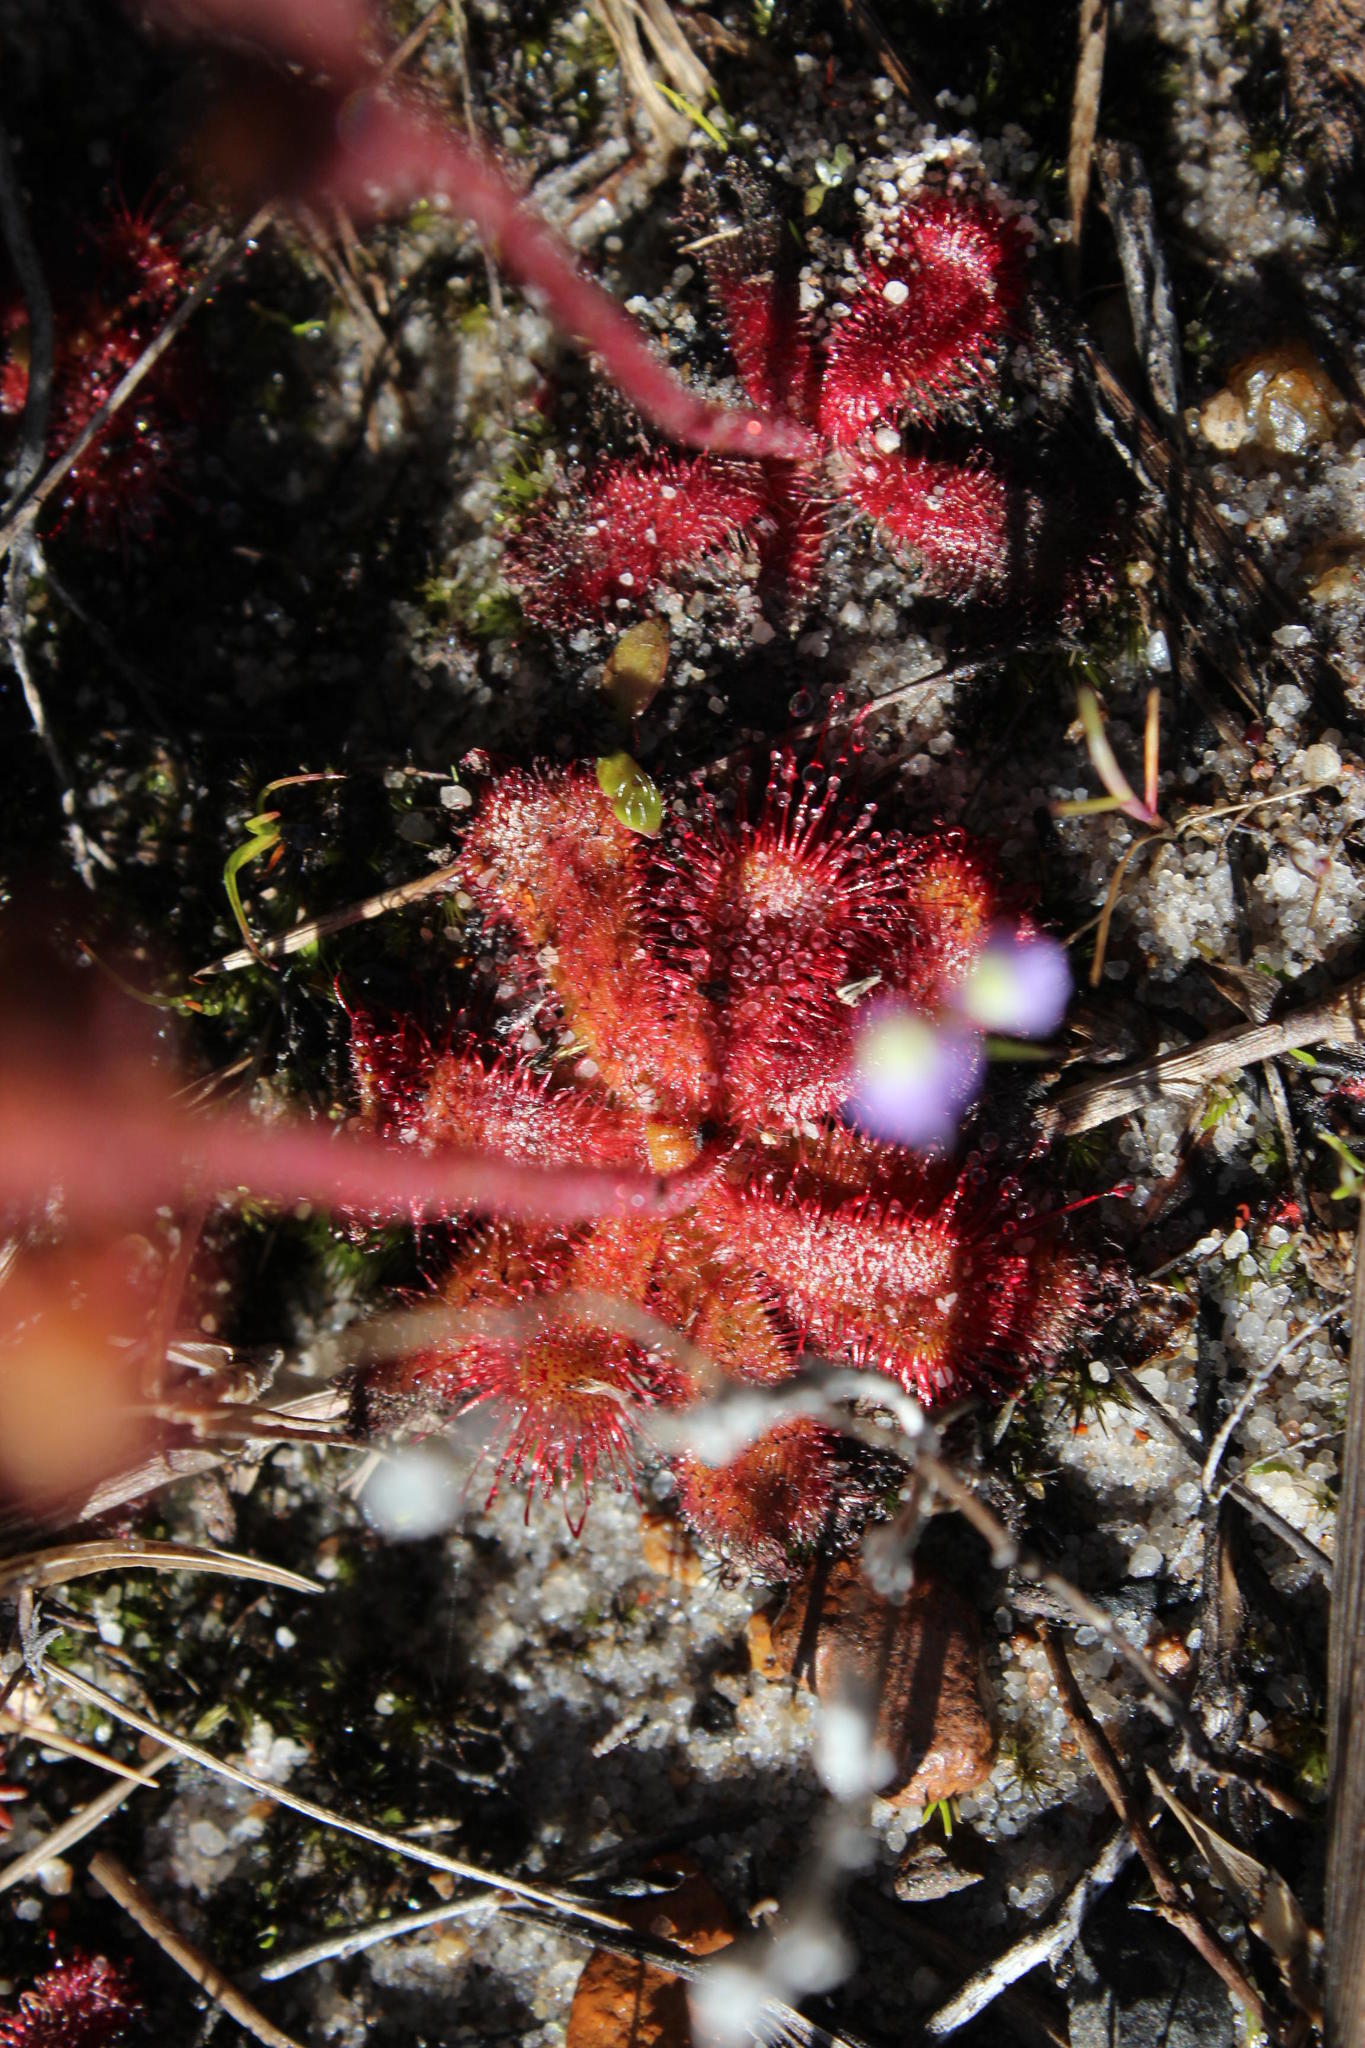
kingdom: Plantae
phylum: Tracheophyta
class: Magnoliopsida
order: Caryophyllales
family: Droseraceae
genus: Drosera
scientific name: Drosera trinervia
